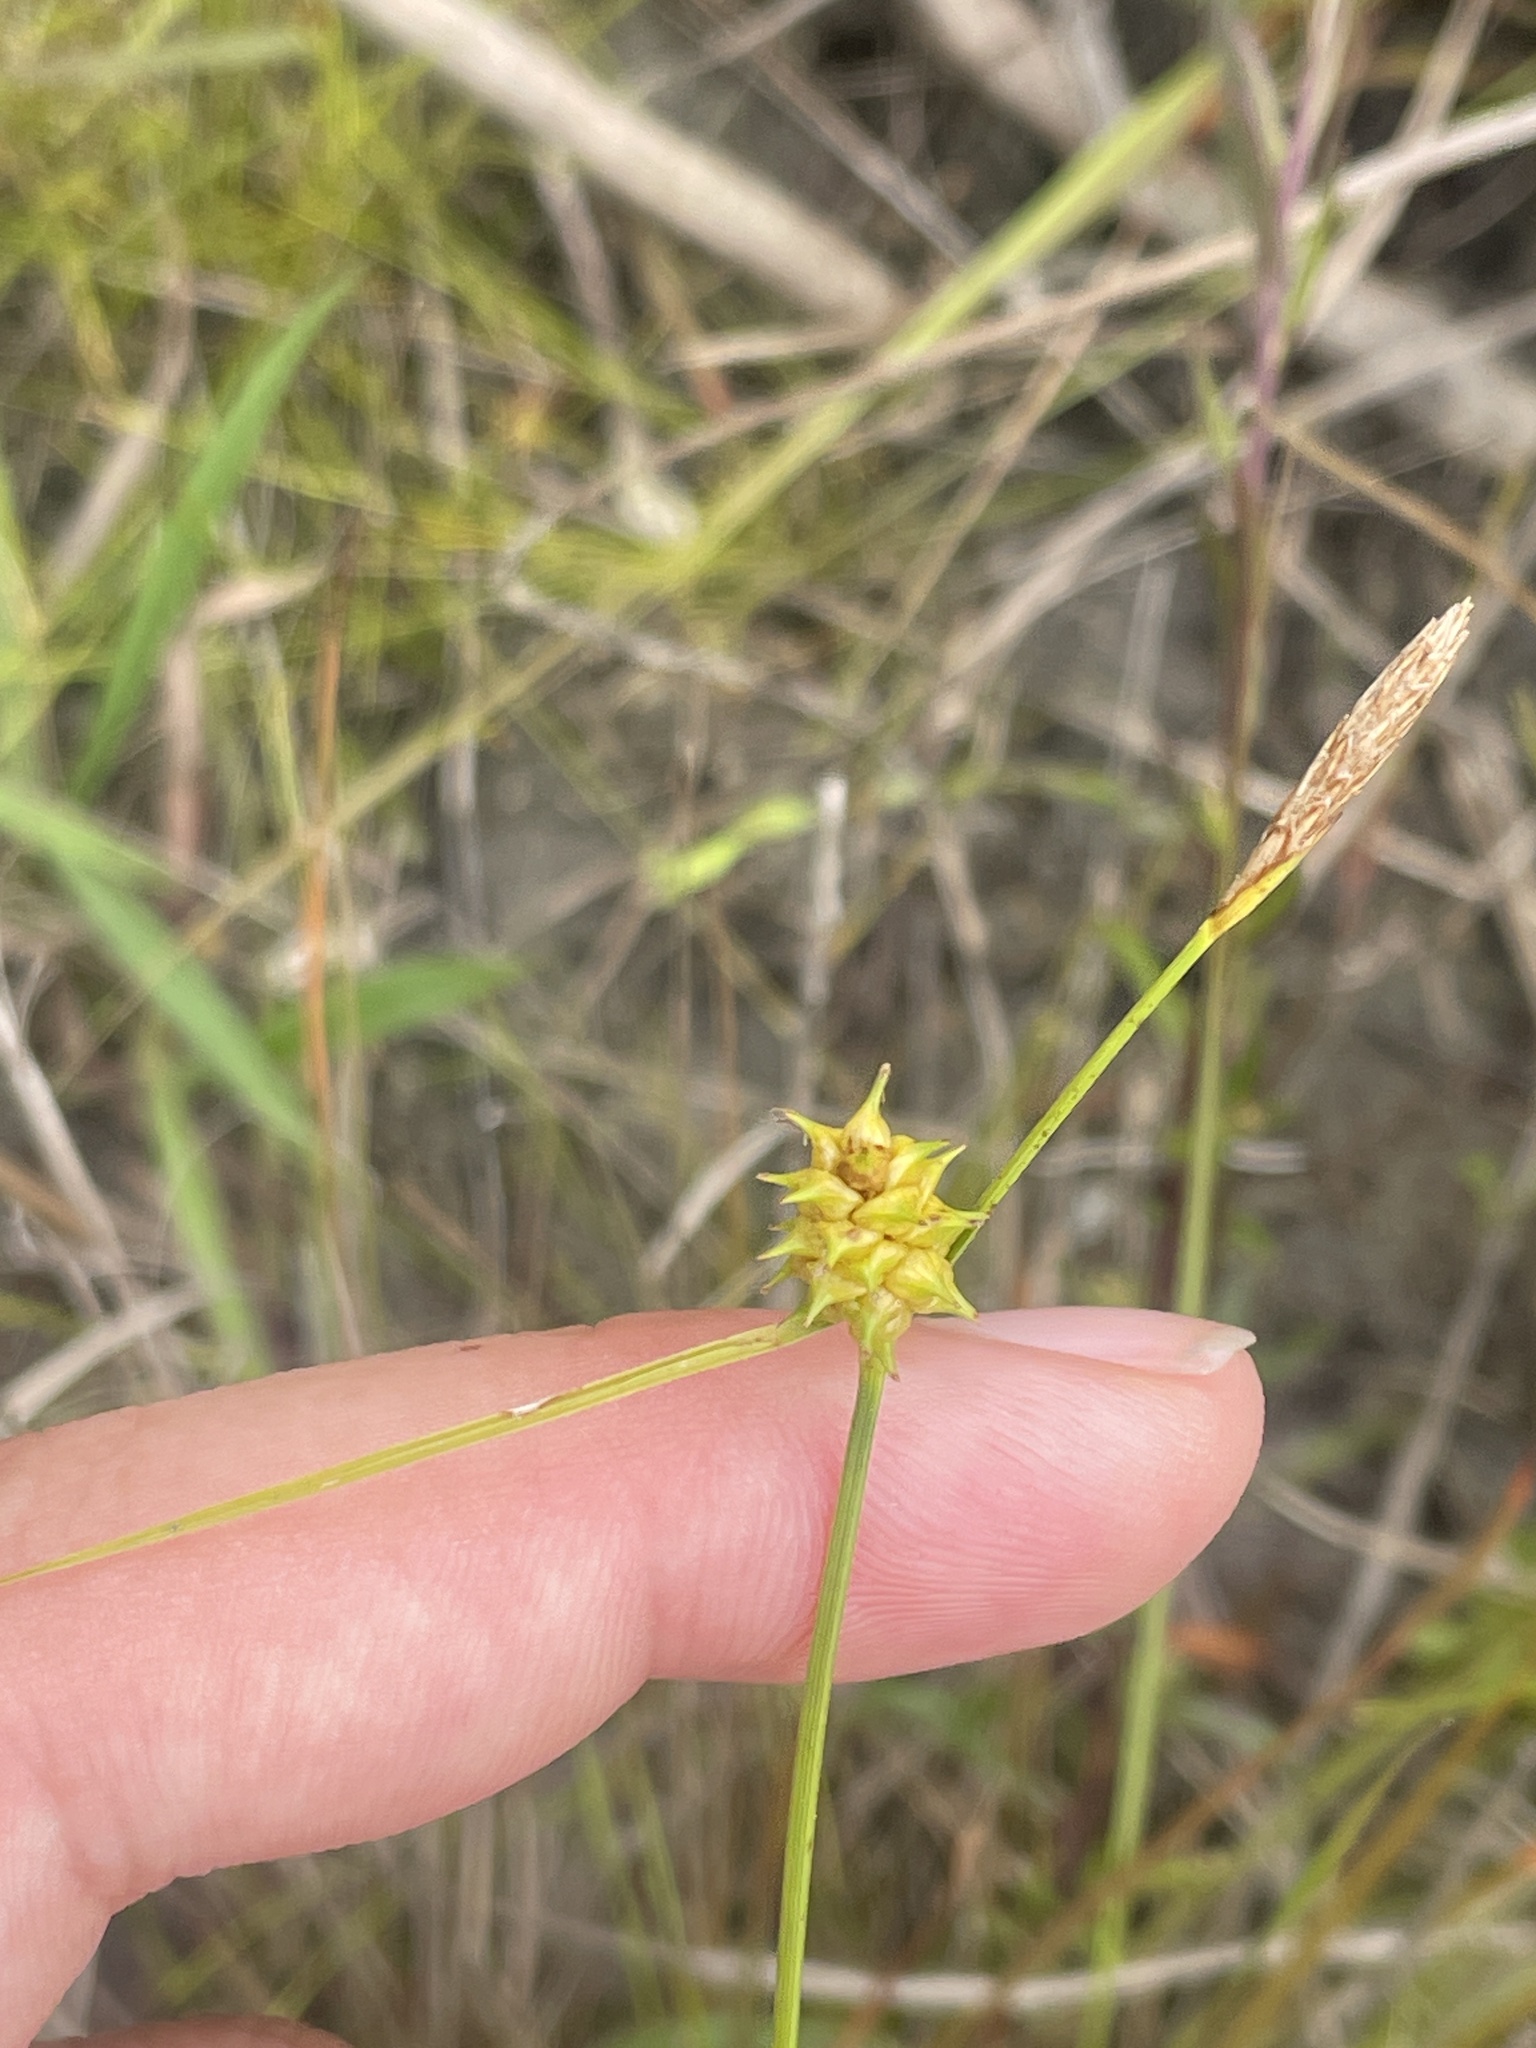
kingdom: Plantae
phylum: Tracheophyta
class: Liliopsida
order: Poales
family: Cyperaceae
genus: Carex
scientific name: Carex lutea
